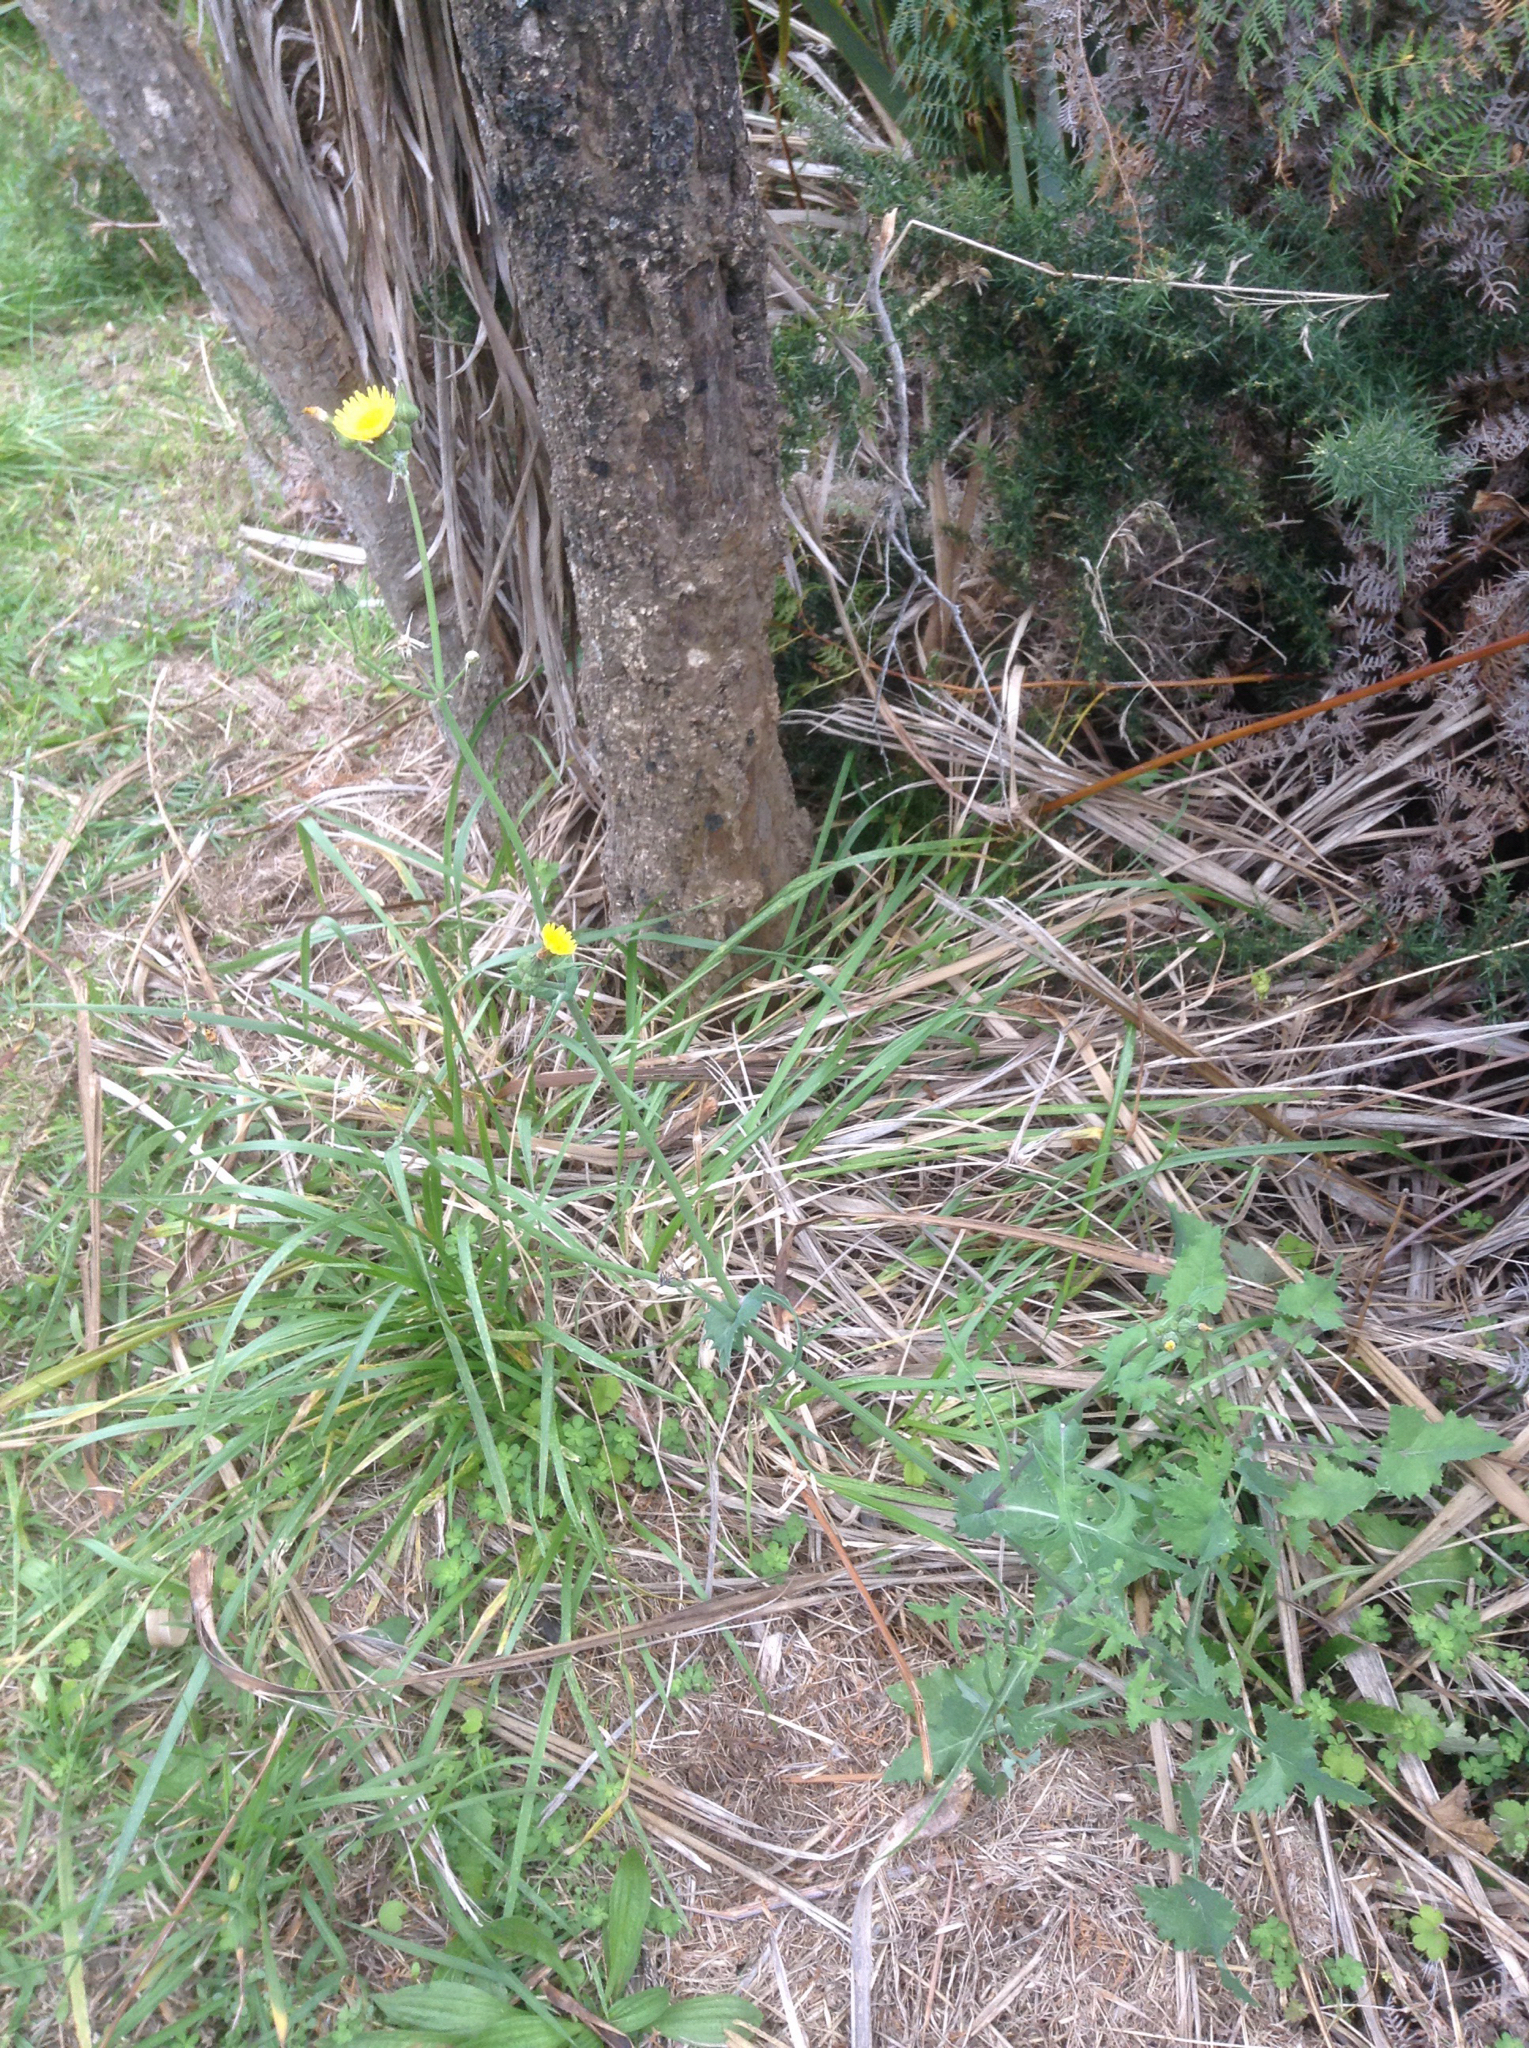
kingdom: Plantae
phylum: Tracheophyta
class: Magnoliopsida
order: Asterales
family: Asteraceae
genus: Sonchus
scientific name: Sonchus oleraceus
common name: Common sowthistle
